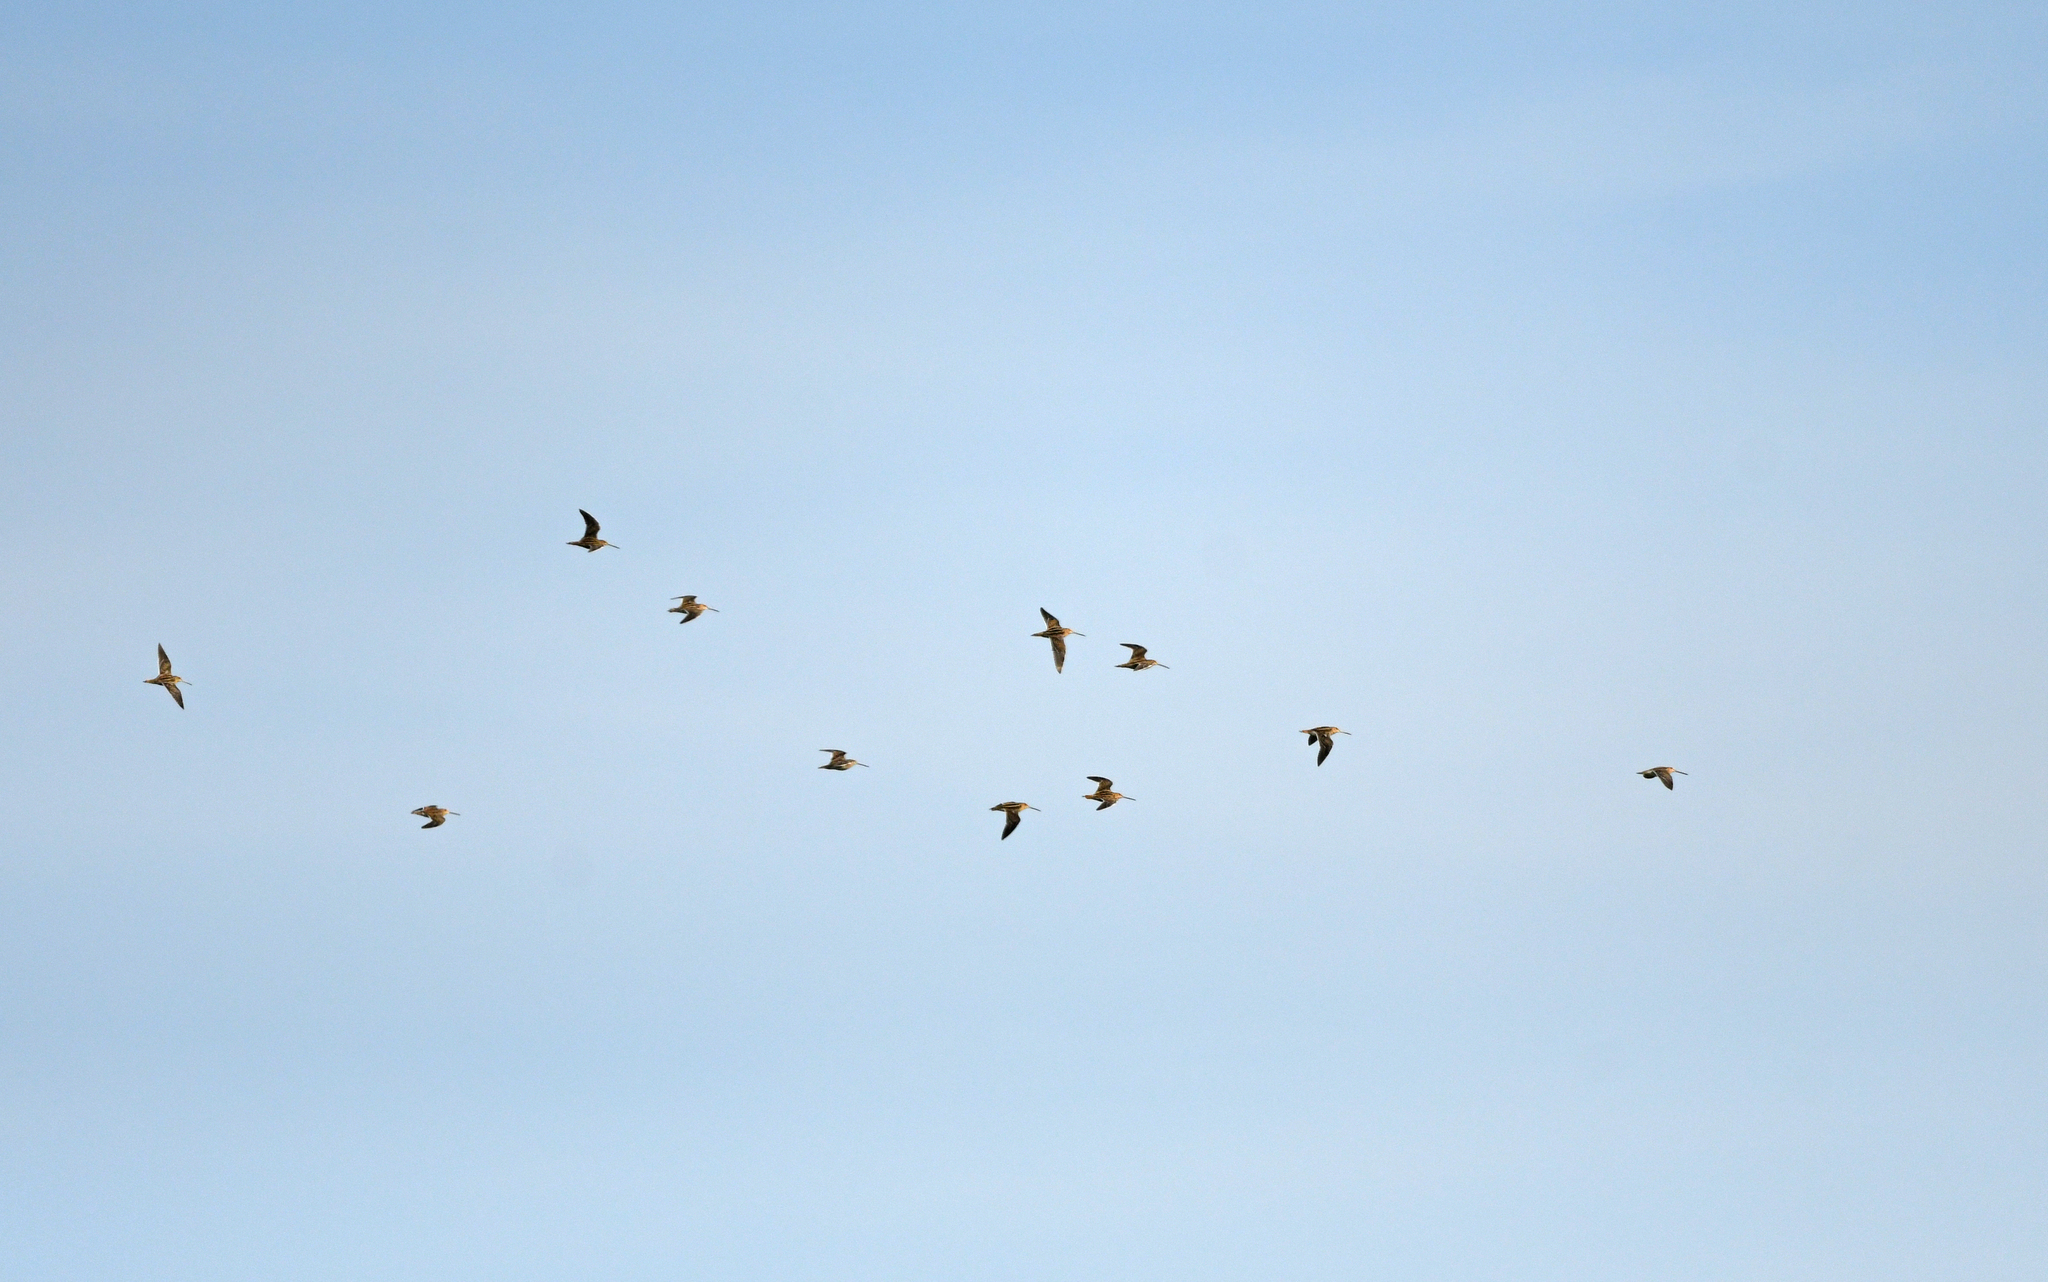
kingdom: Animalia
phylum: Chordata
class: Aves
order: Charadriiformes
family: Scolopacidae
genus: Gallinago
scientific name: Gallinago gallinago
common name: Common snipe
